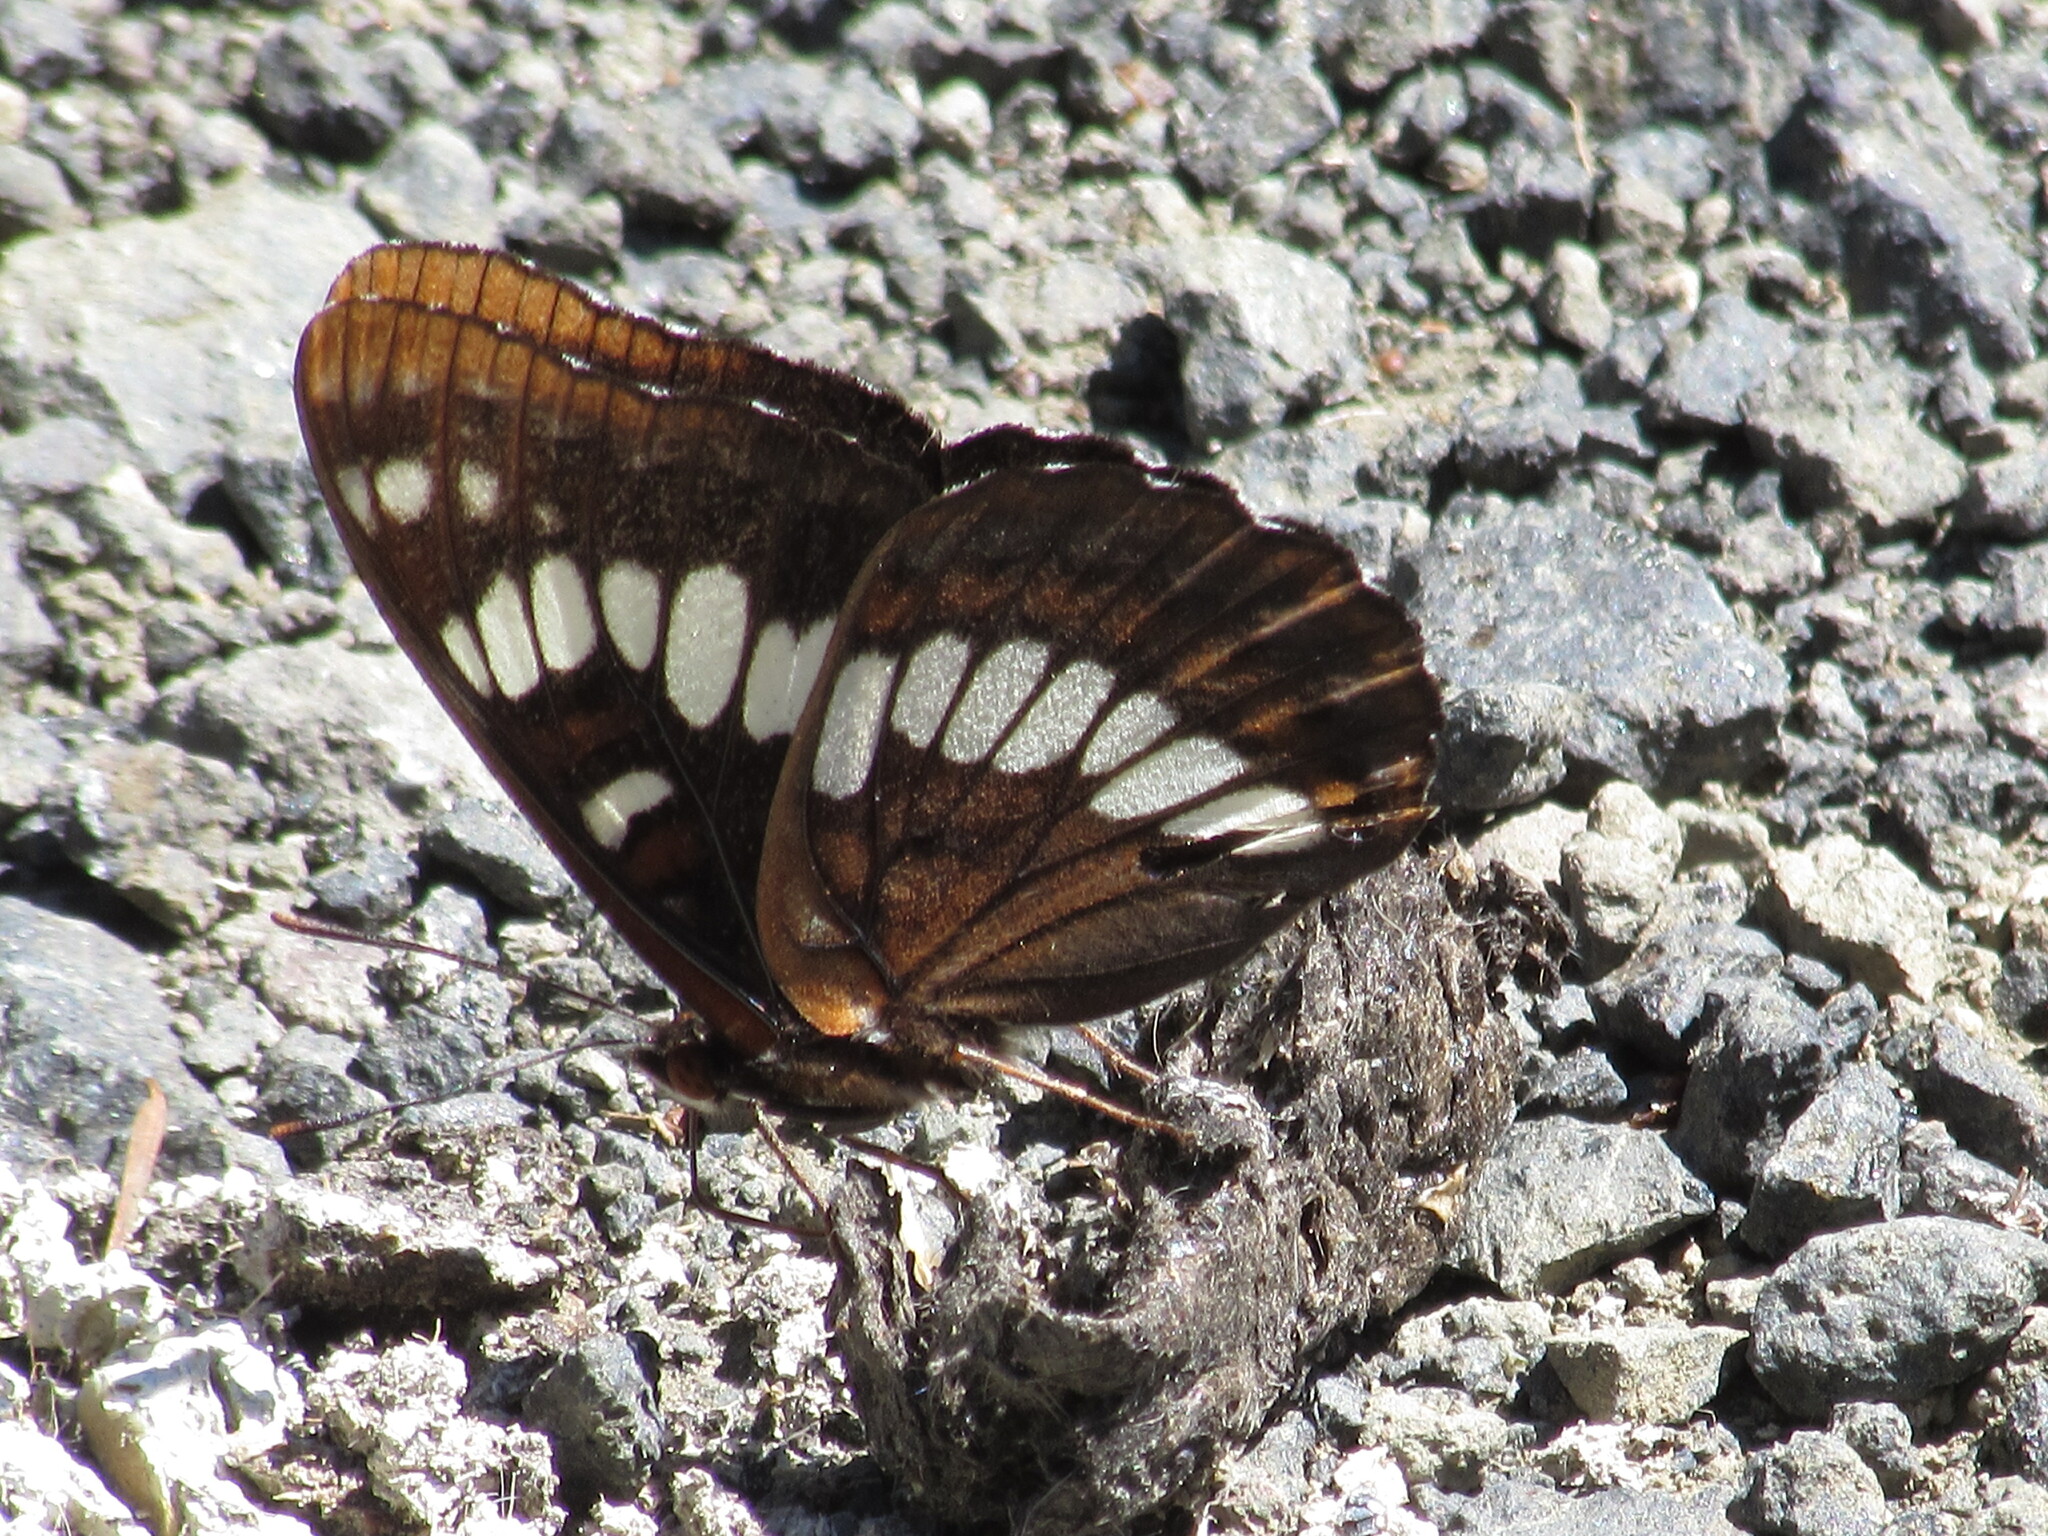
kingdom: Animalia
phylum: Arthropoda
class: Insecta
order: Lepidoptera
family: Nymphalidae
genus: Limenitis
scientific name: Limenitis lorquini
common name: Lorquin's admiral
